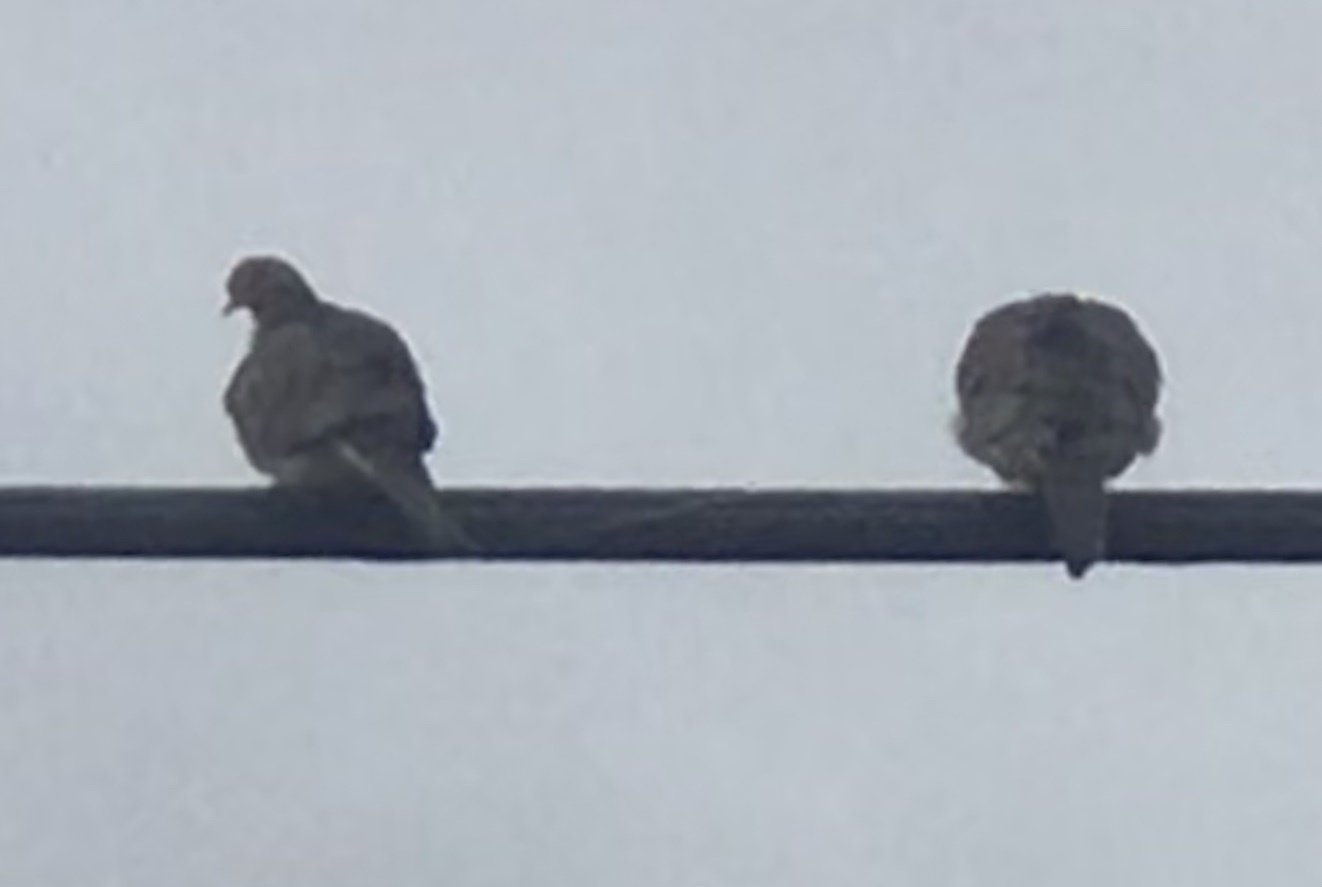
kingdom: Animalia
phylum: Chordata
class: Aves
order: Columbiformes
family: Columbidae
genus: Zenaida
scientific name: Zenaida macroura
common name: Mourning dove
